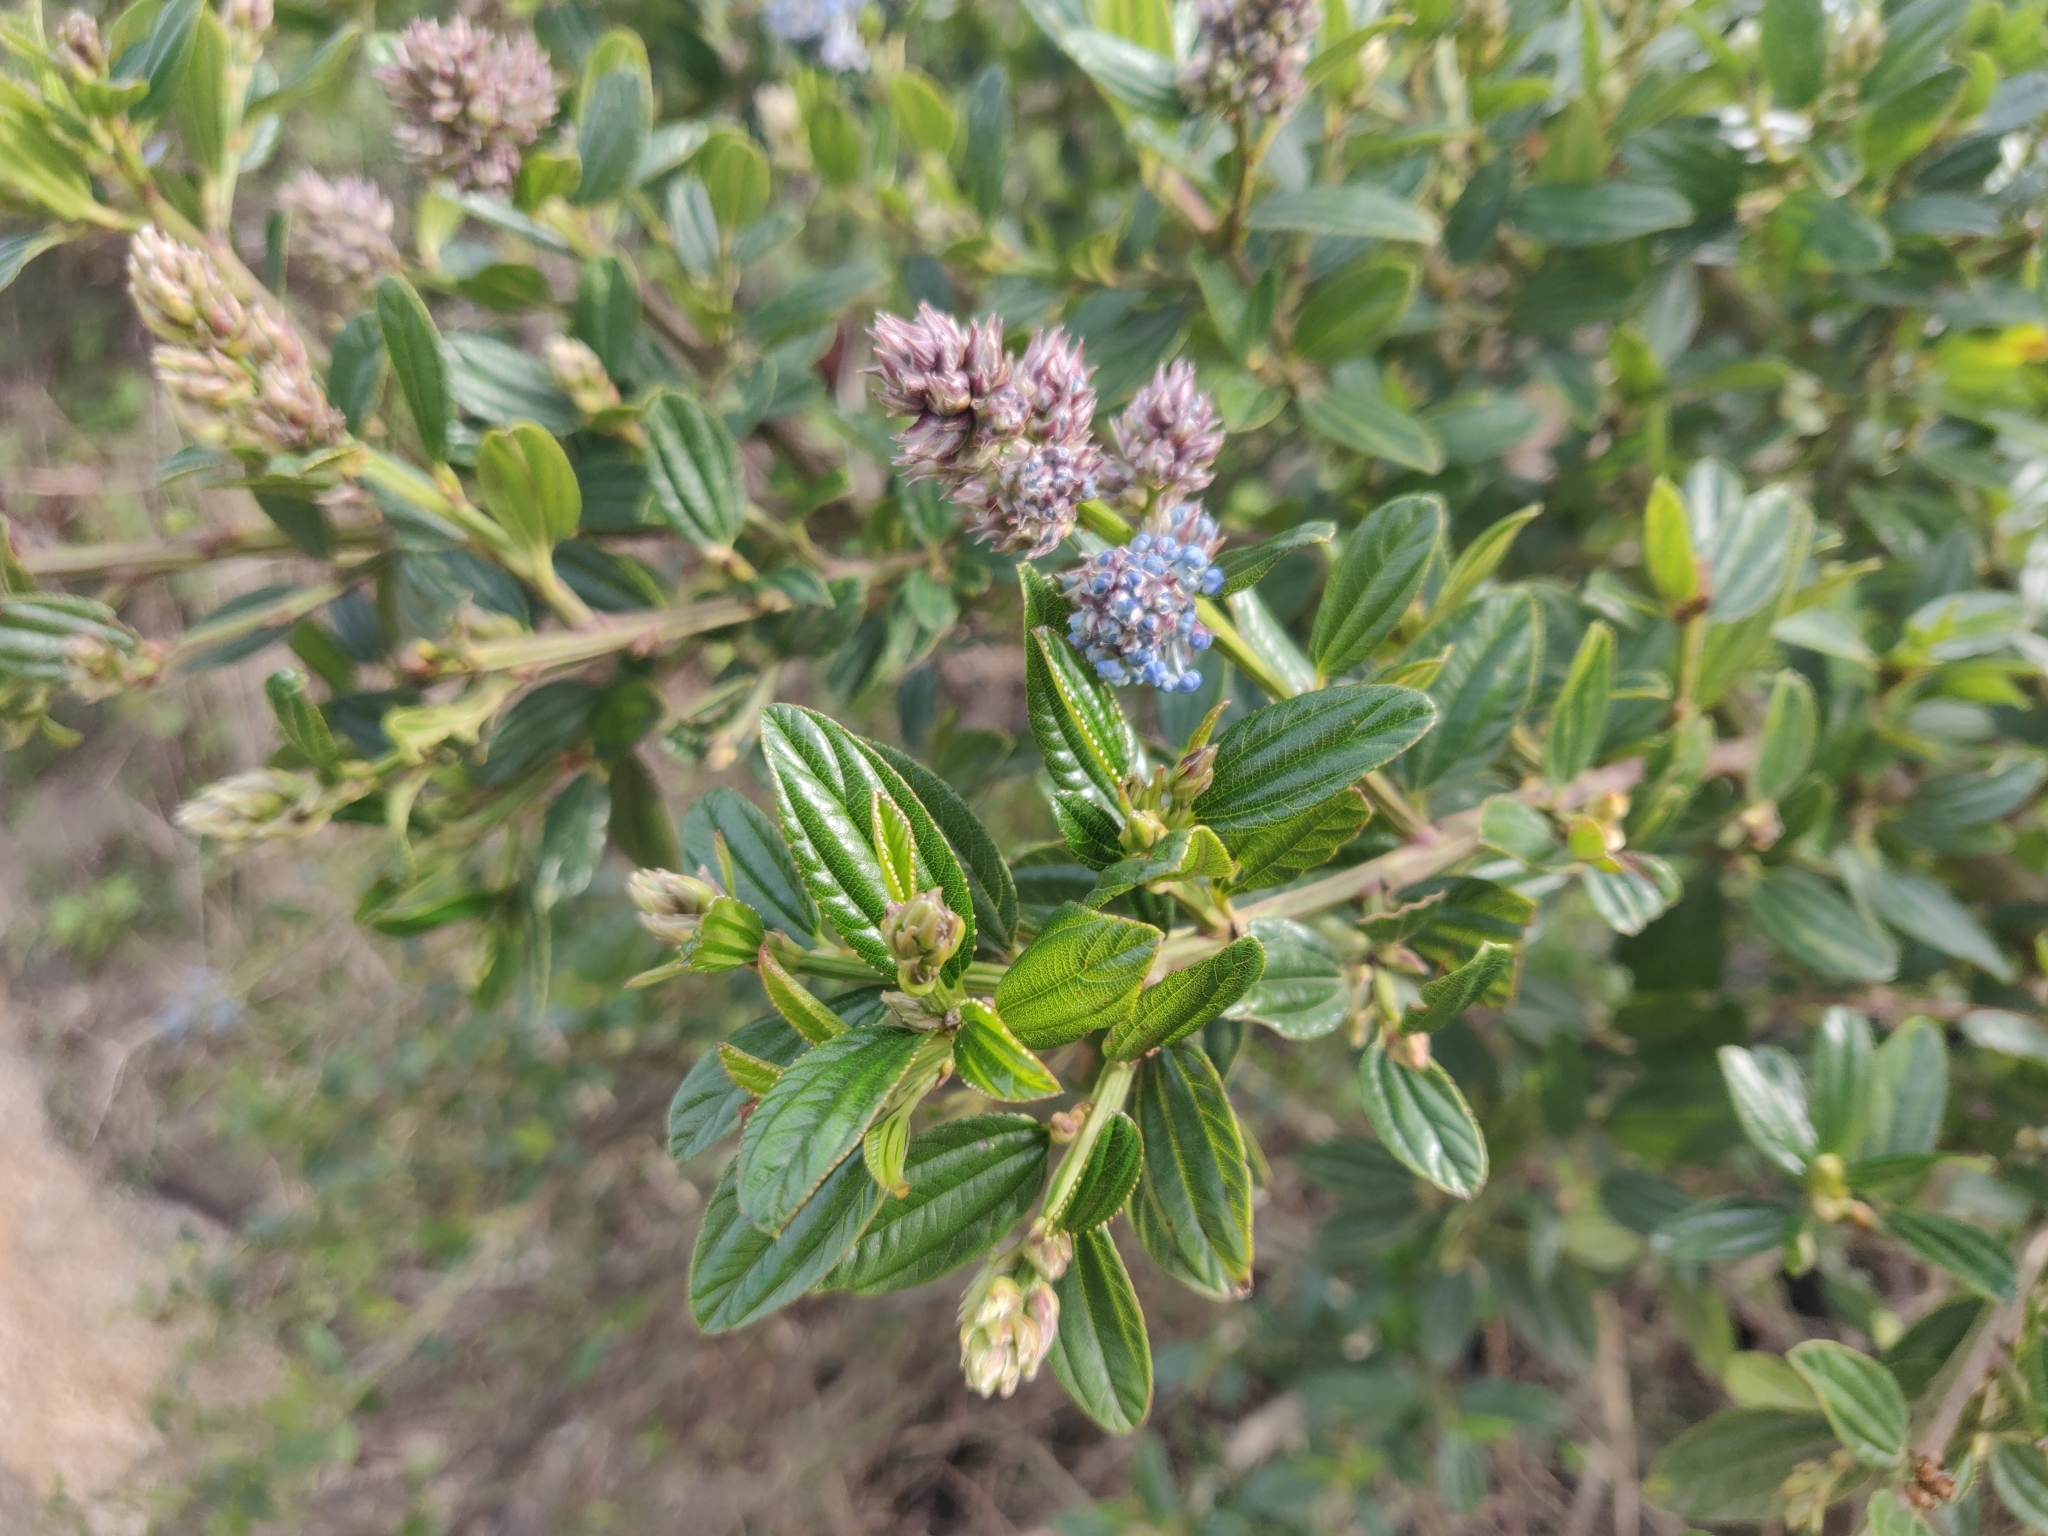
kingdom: Plantae
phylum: Tracheophyta
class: Magnoliopsida
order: Rosales
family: Rhamnaceae
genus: Ceanothus
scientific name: Ceanothus thyrsiflorus
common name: California-lilac
